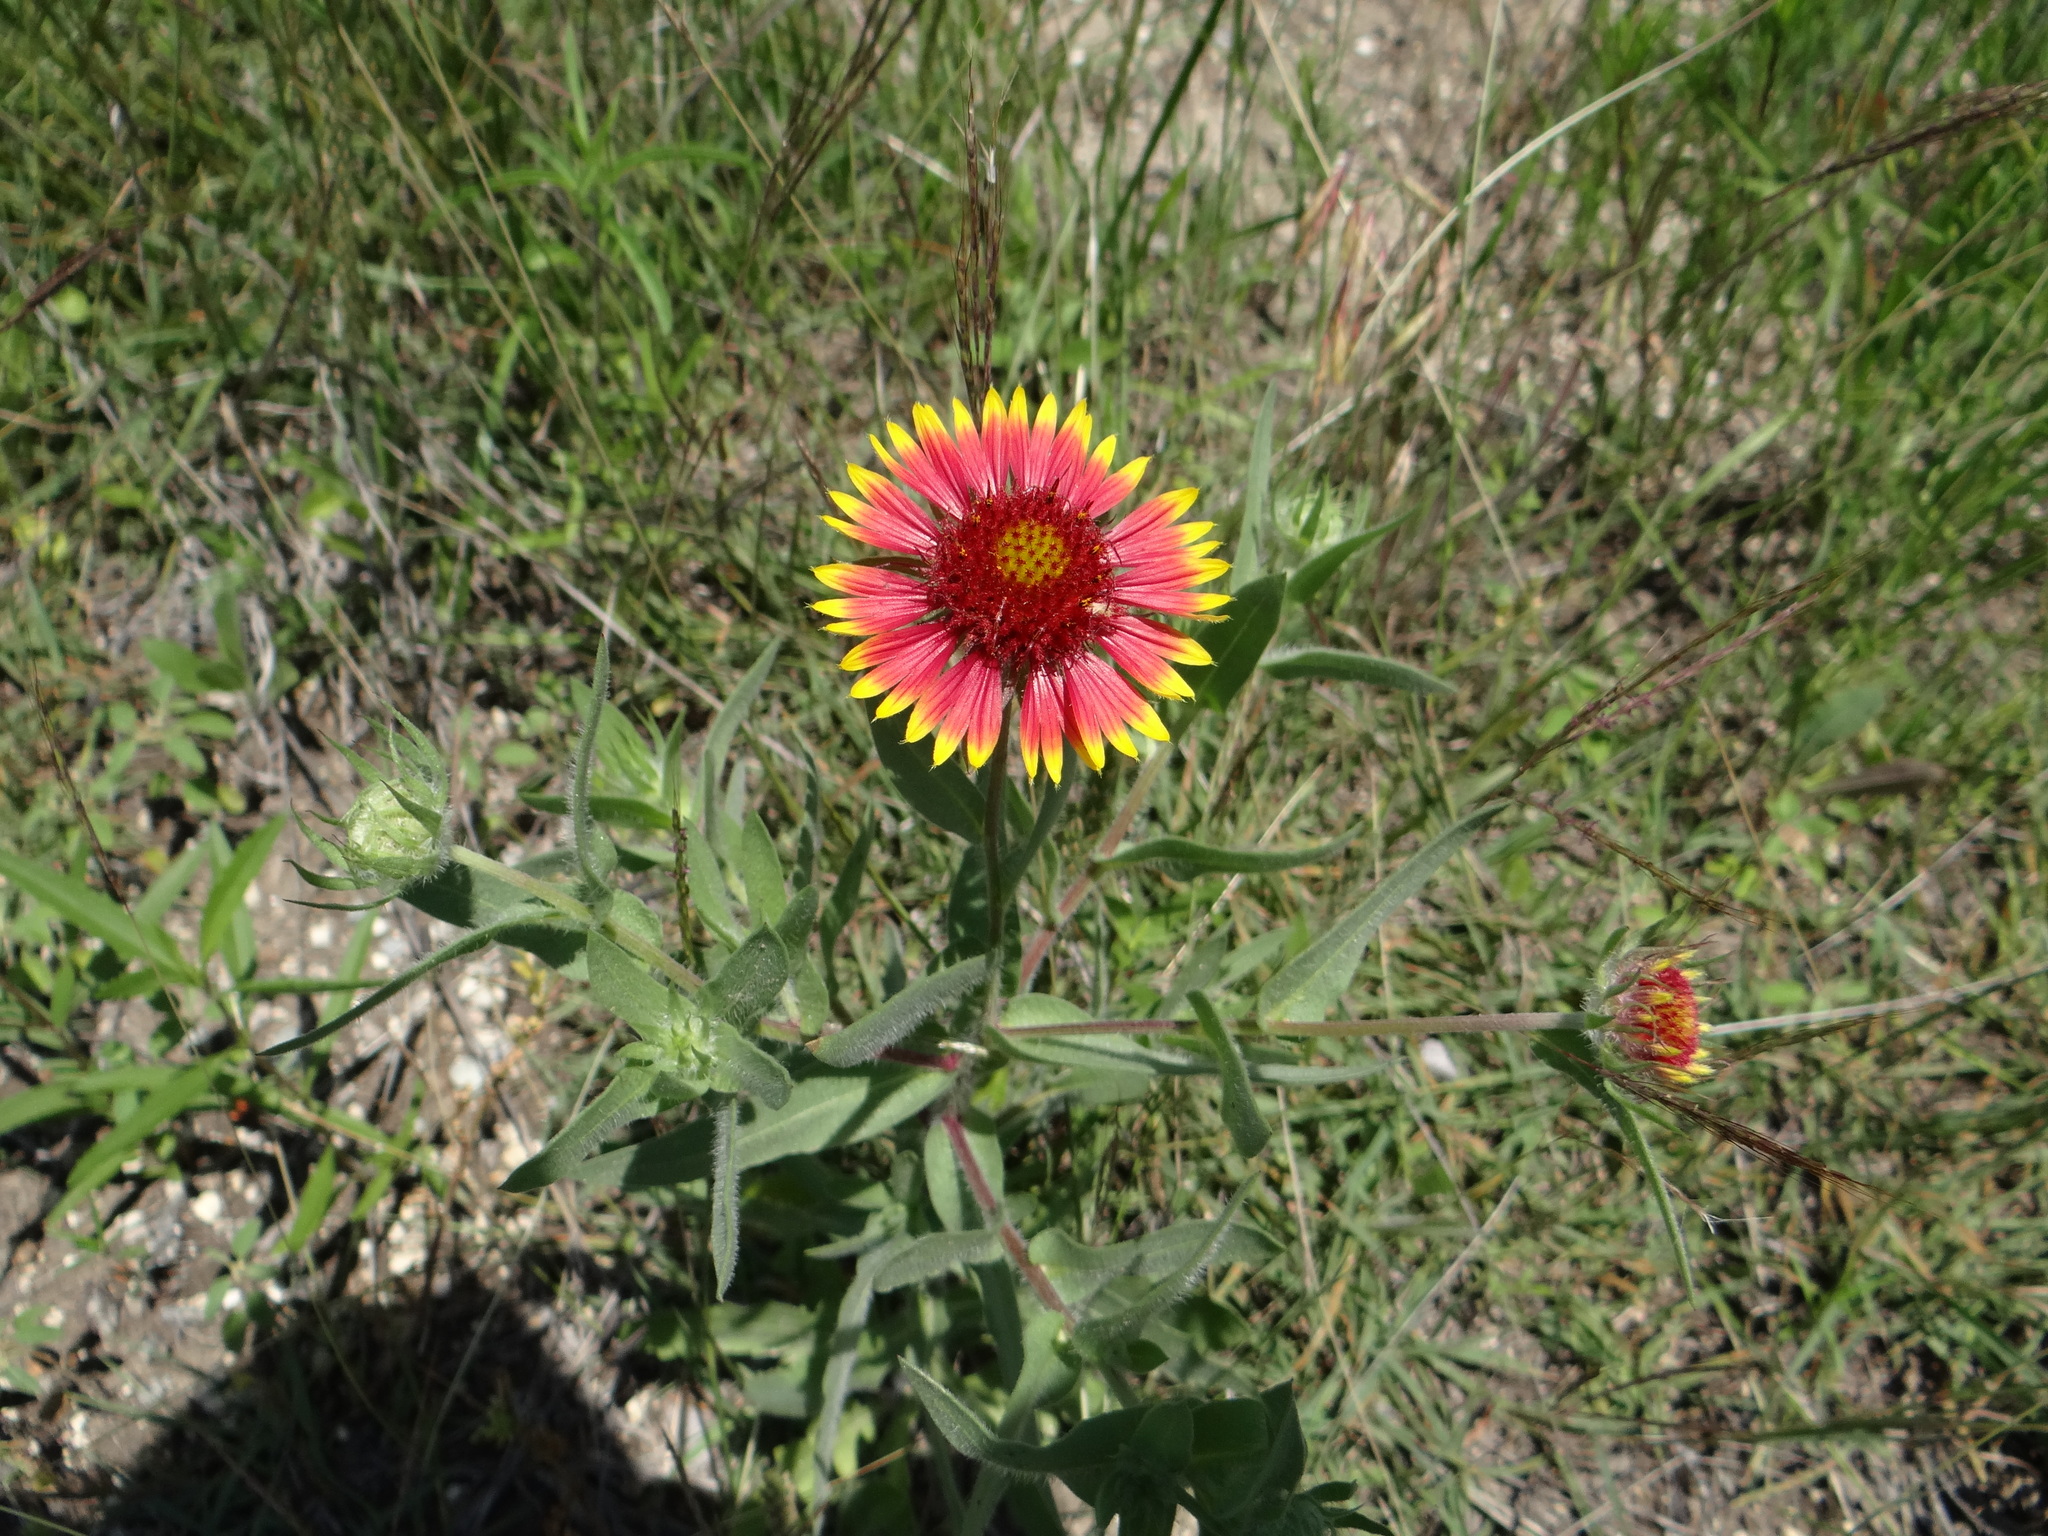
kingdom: Plantae
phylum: Tracheophyta
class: Magnoliopsida
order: Asterales
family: Asteraceae
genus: Gaillardia
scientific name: Gaillardia pulchella
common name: Firewheel
